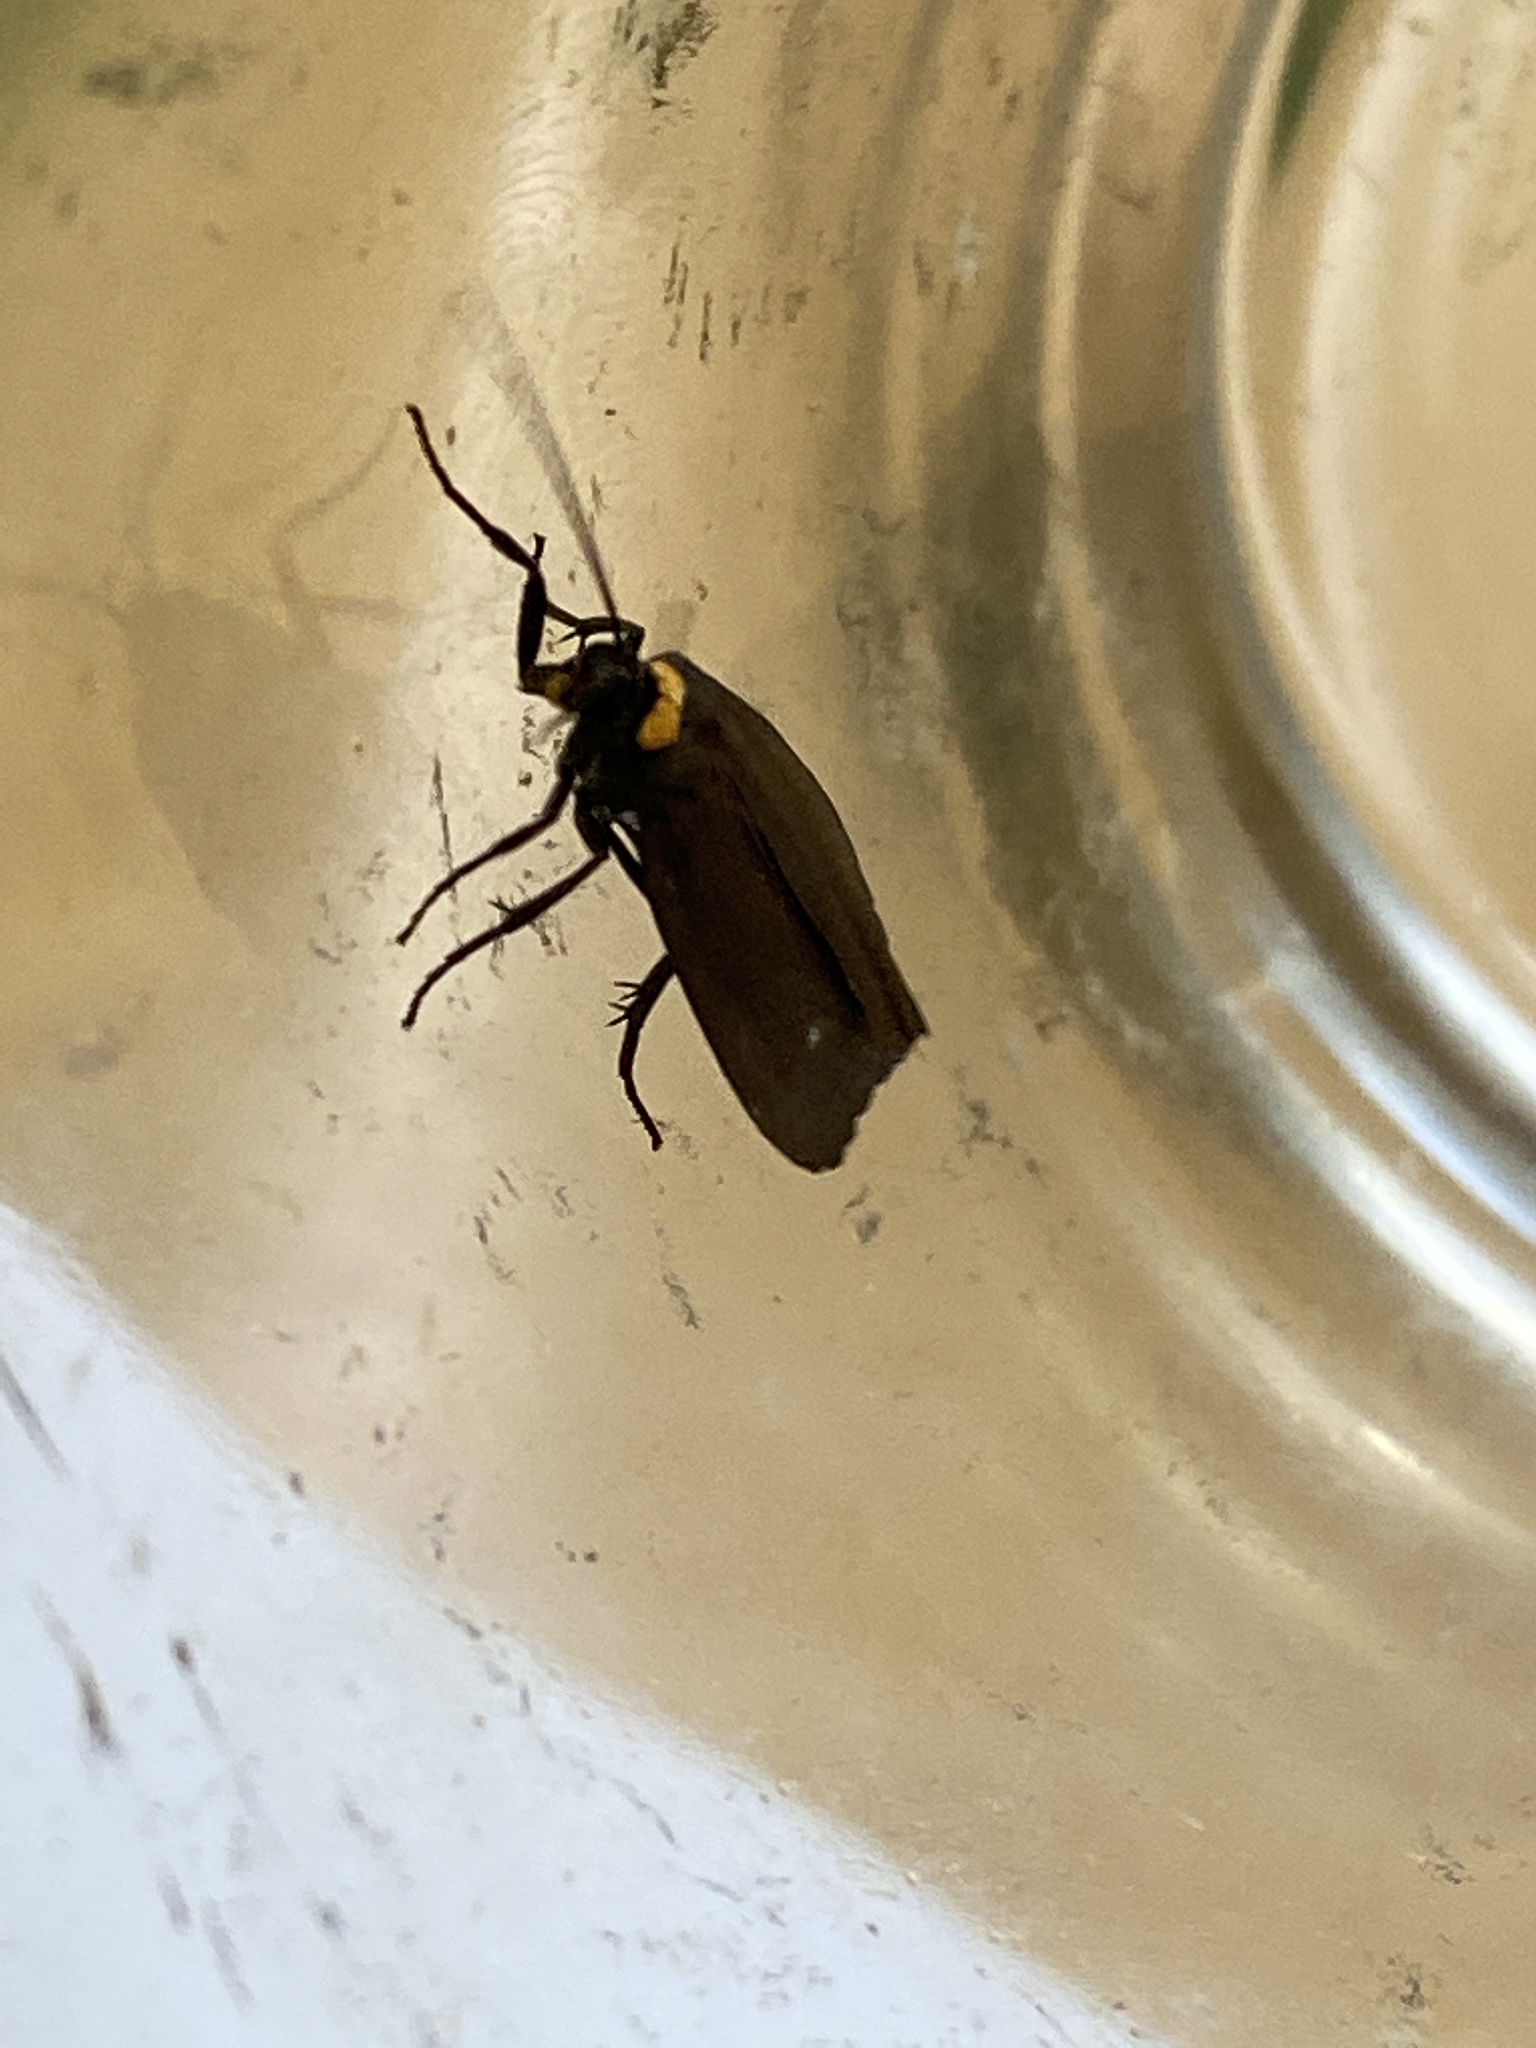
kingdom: Animalia
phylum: Arthropoda
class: Insecta
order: Lepidoptera
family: Erebidae
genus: Atolmis
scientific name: Atolmis rubricollis
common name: Red-necked footman
